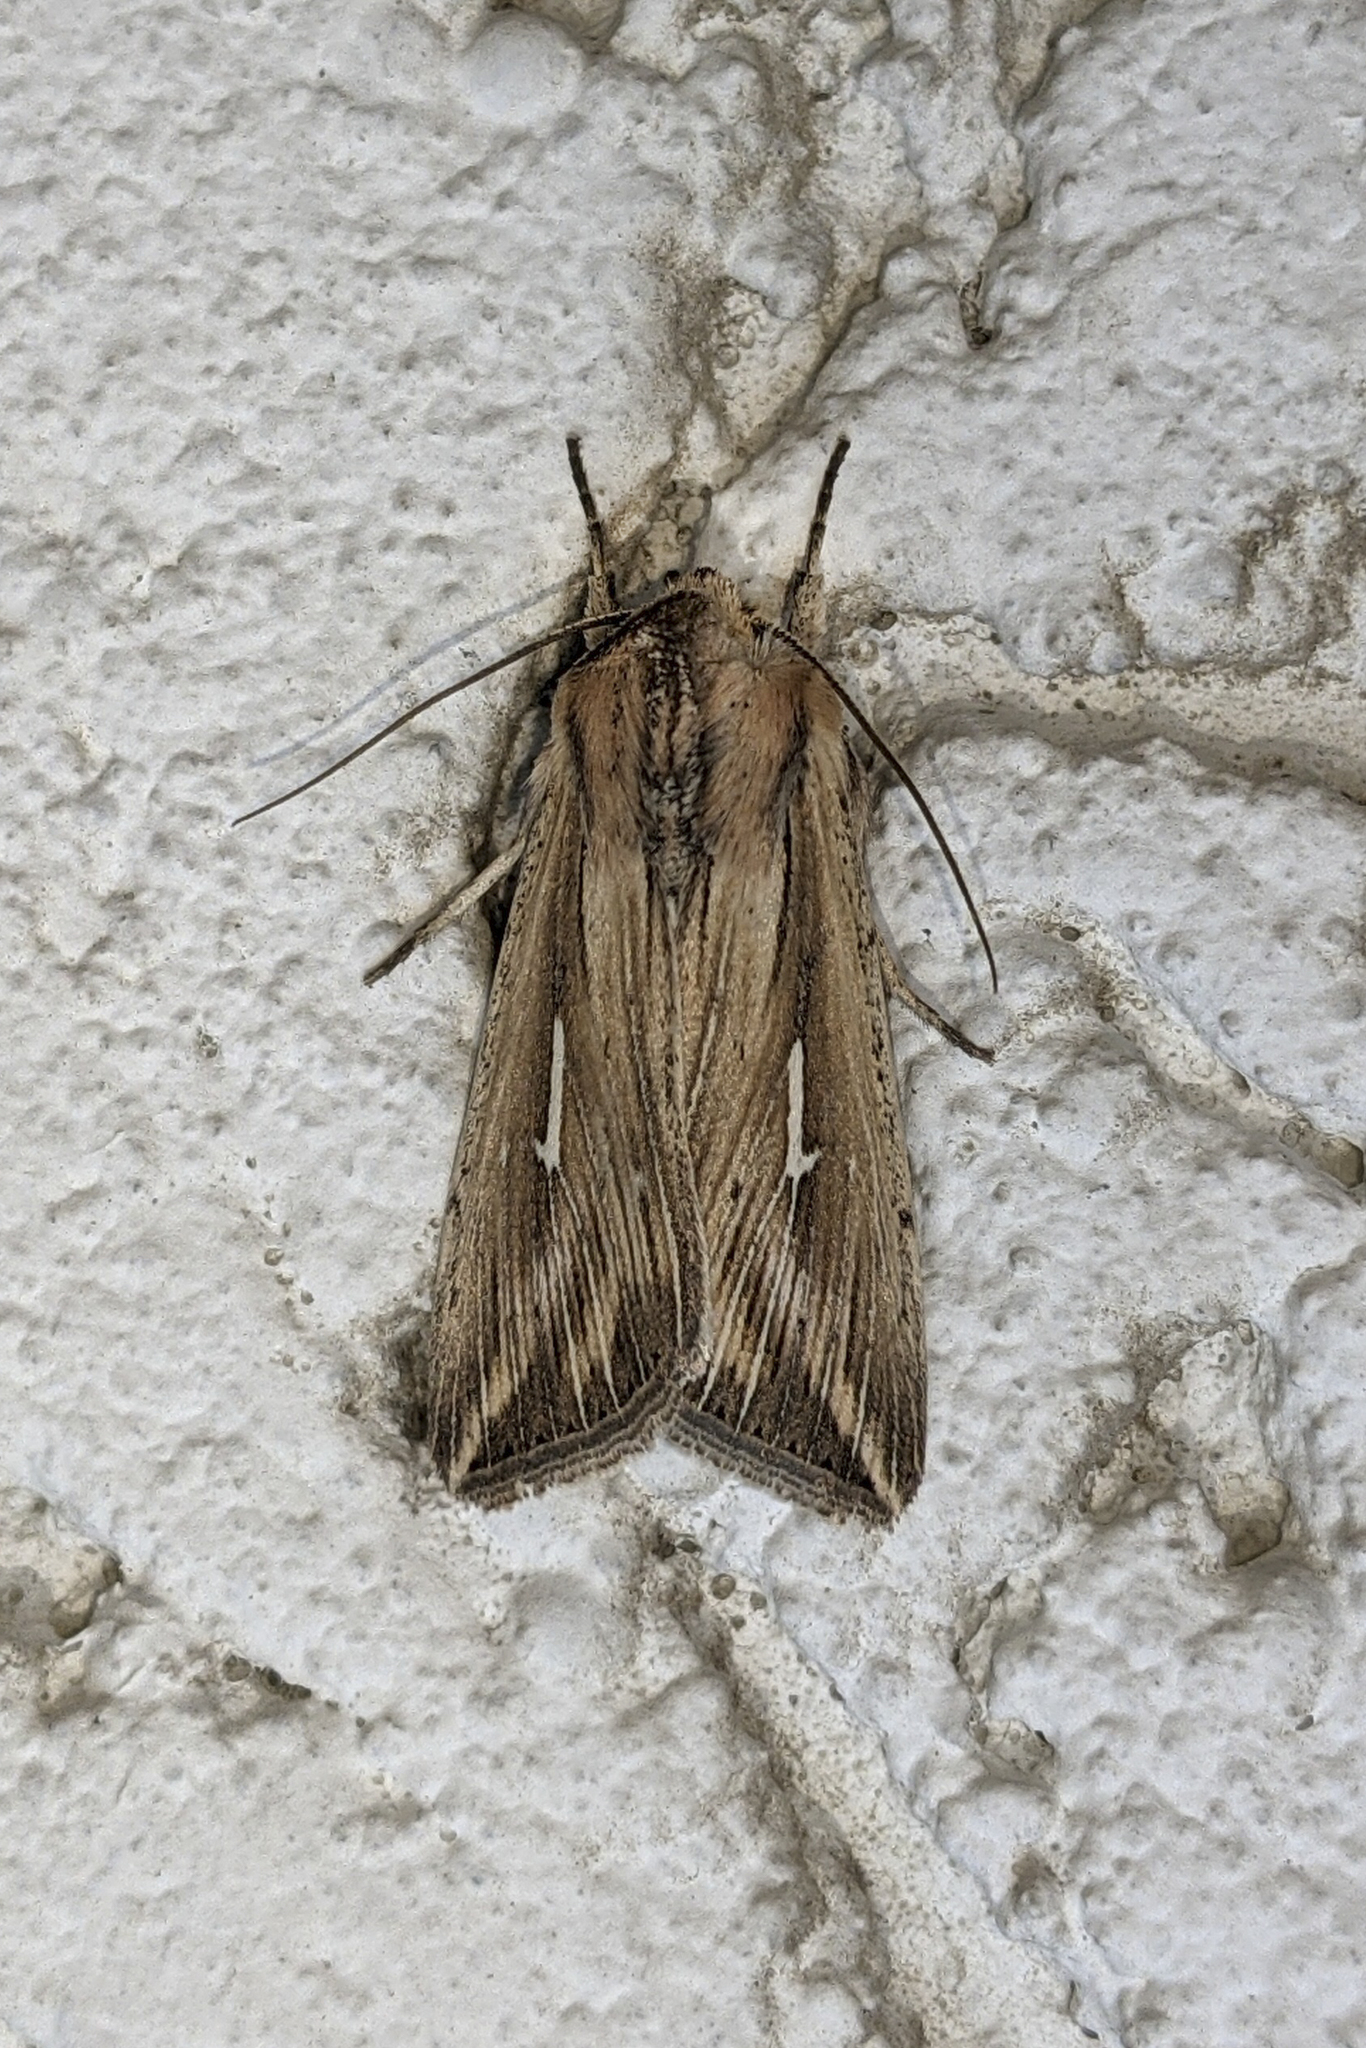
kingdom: Animalia
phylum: Arthropoda
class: Insecta
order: Lepidoptera
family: Noctuidae
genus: Mythimna
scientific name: Mythimna l-album
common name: L-album wainscot
